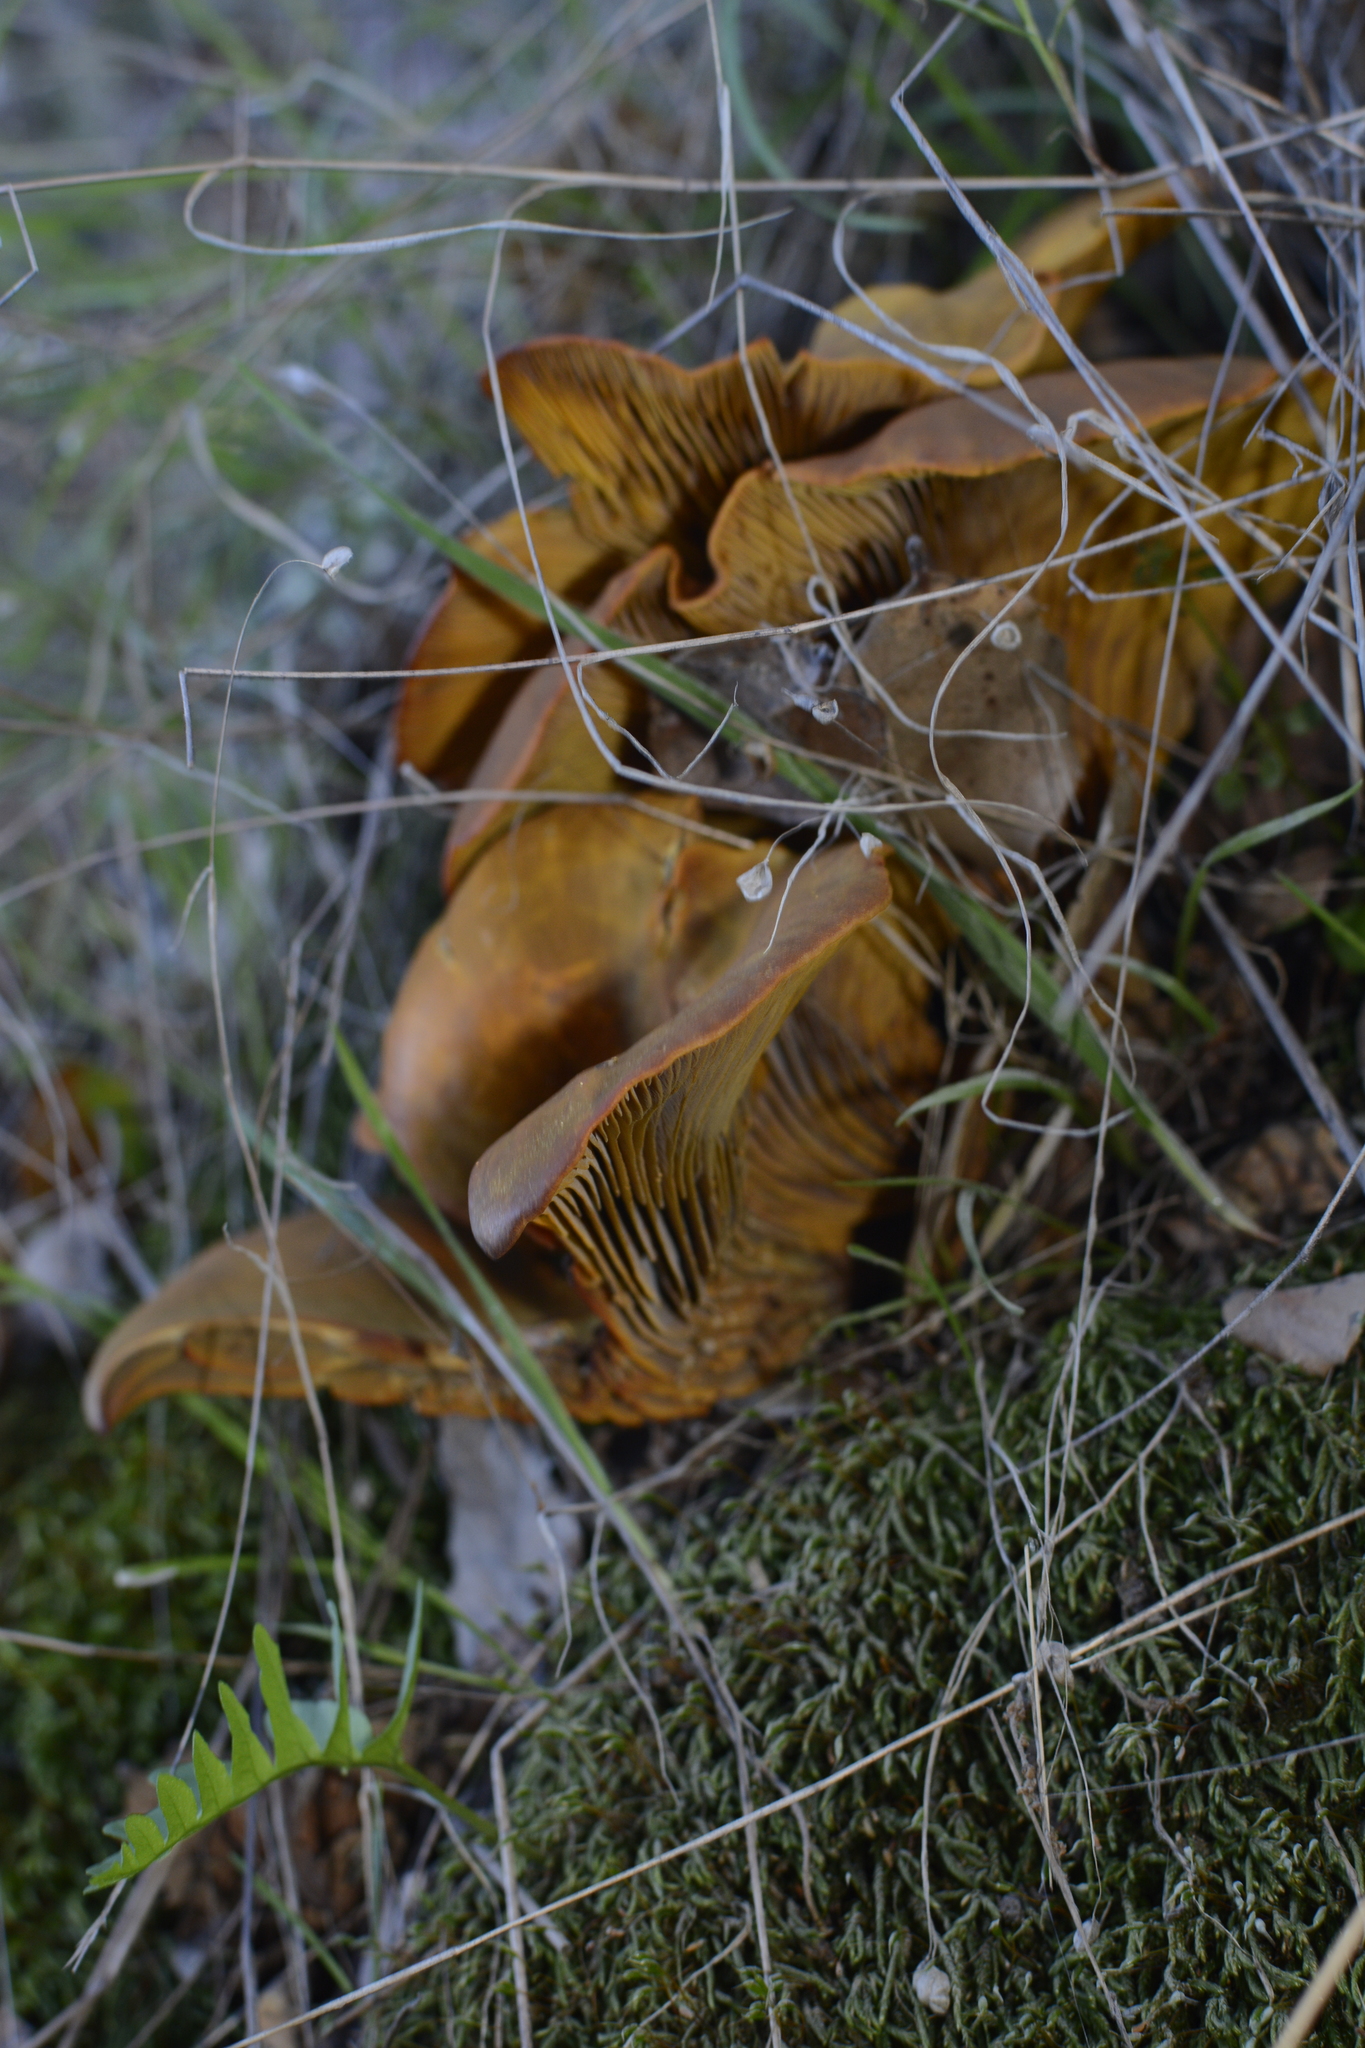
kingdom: Fungi
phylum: Basidiomycota
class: Agaricomycetes
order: Agaricales
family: Omphalotaceae
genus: Omphalotus
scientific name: Omphalotus olivascens
